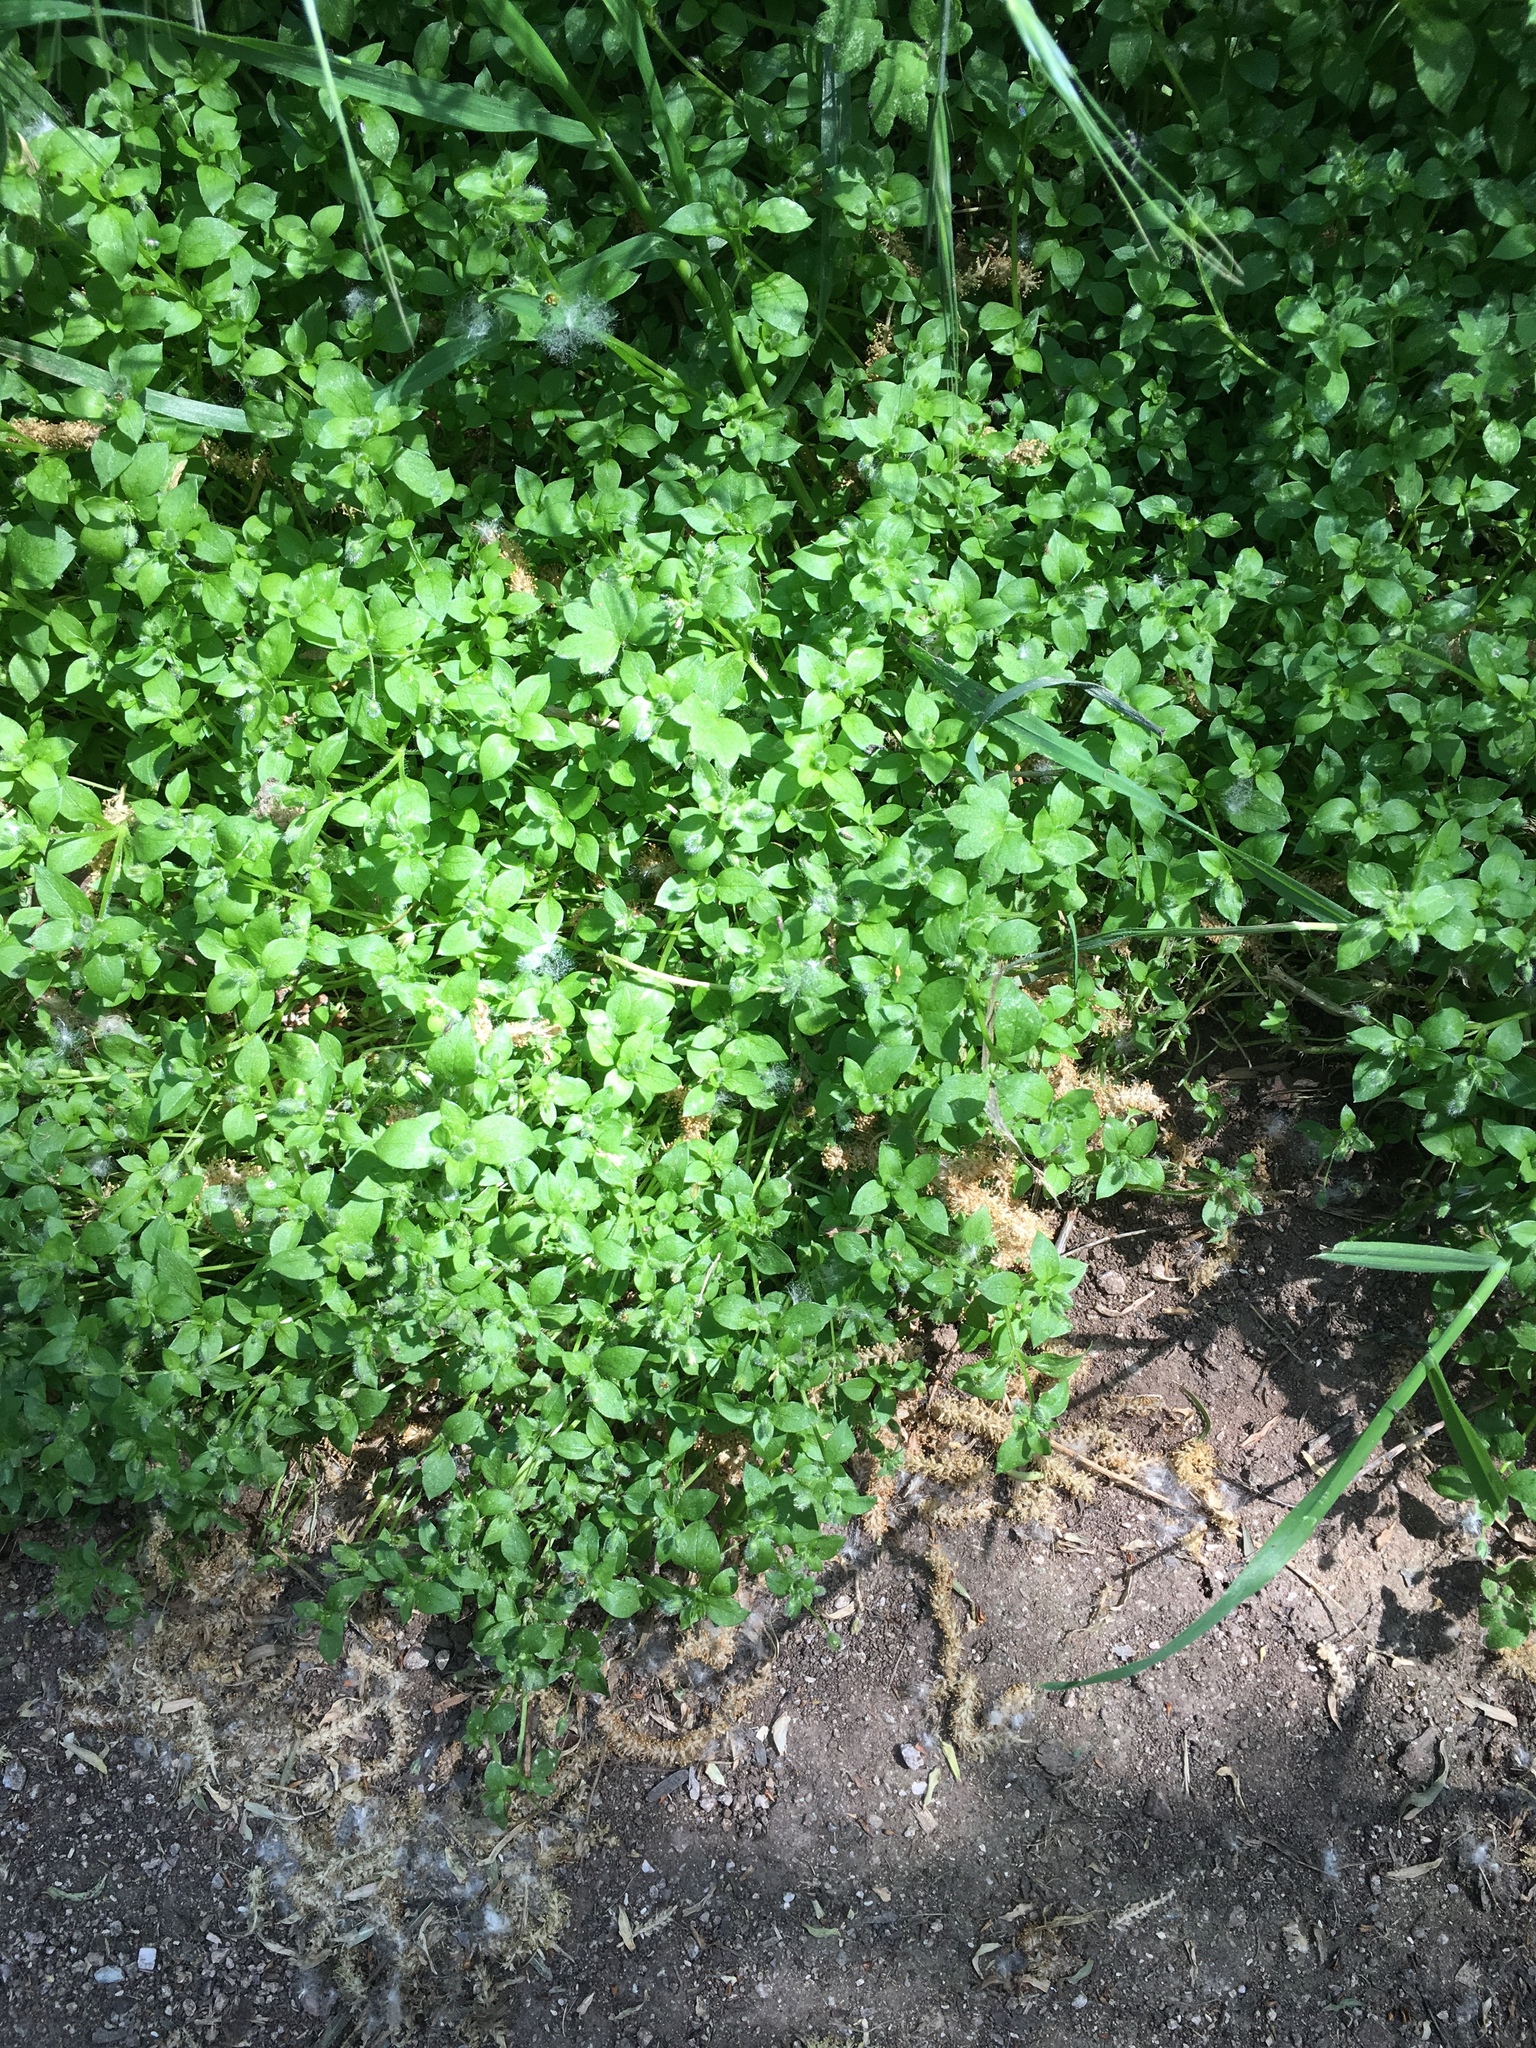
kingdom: Plantae
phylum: Tracheophyta
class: Magnoliopsida
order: Rosales
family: Urticaceae
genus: Parietaria
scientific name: Parietaria hespera
